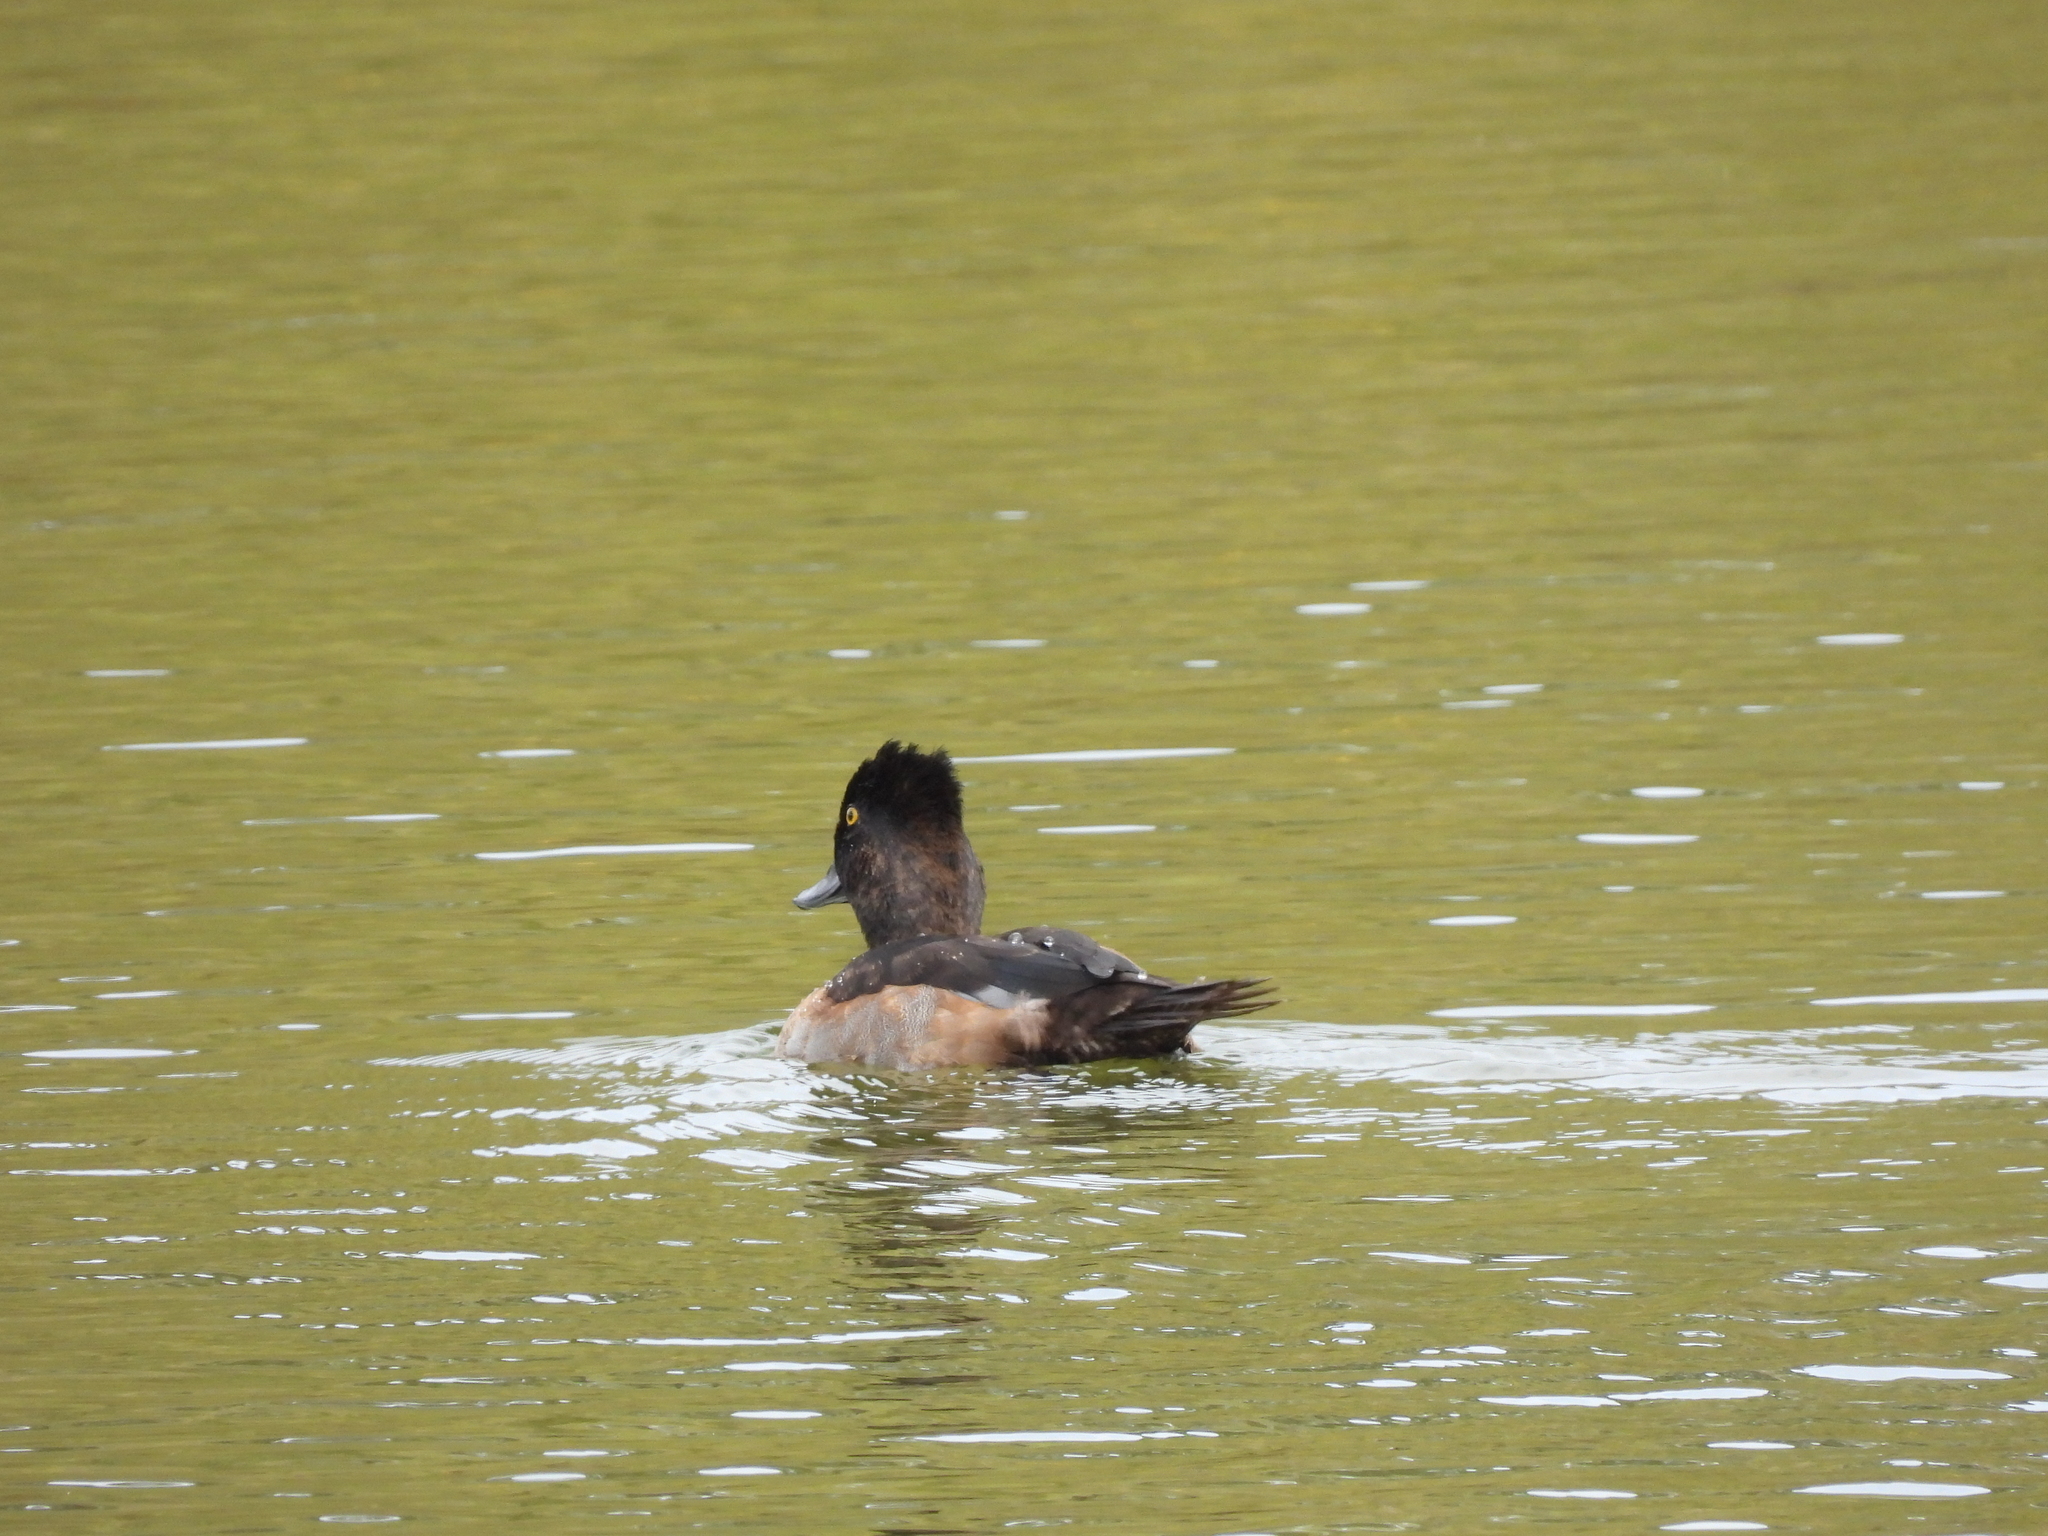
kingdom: Animalia
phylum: Chordata
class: Aves
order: Anseriformes
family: Anatidae
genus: Aythya
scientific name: Aythya collaris
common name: Ring-necked duck
